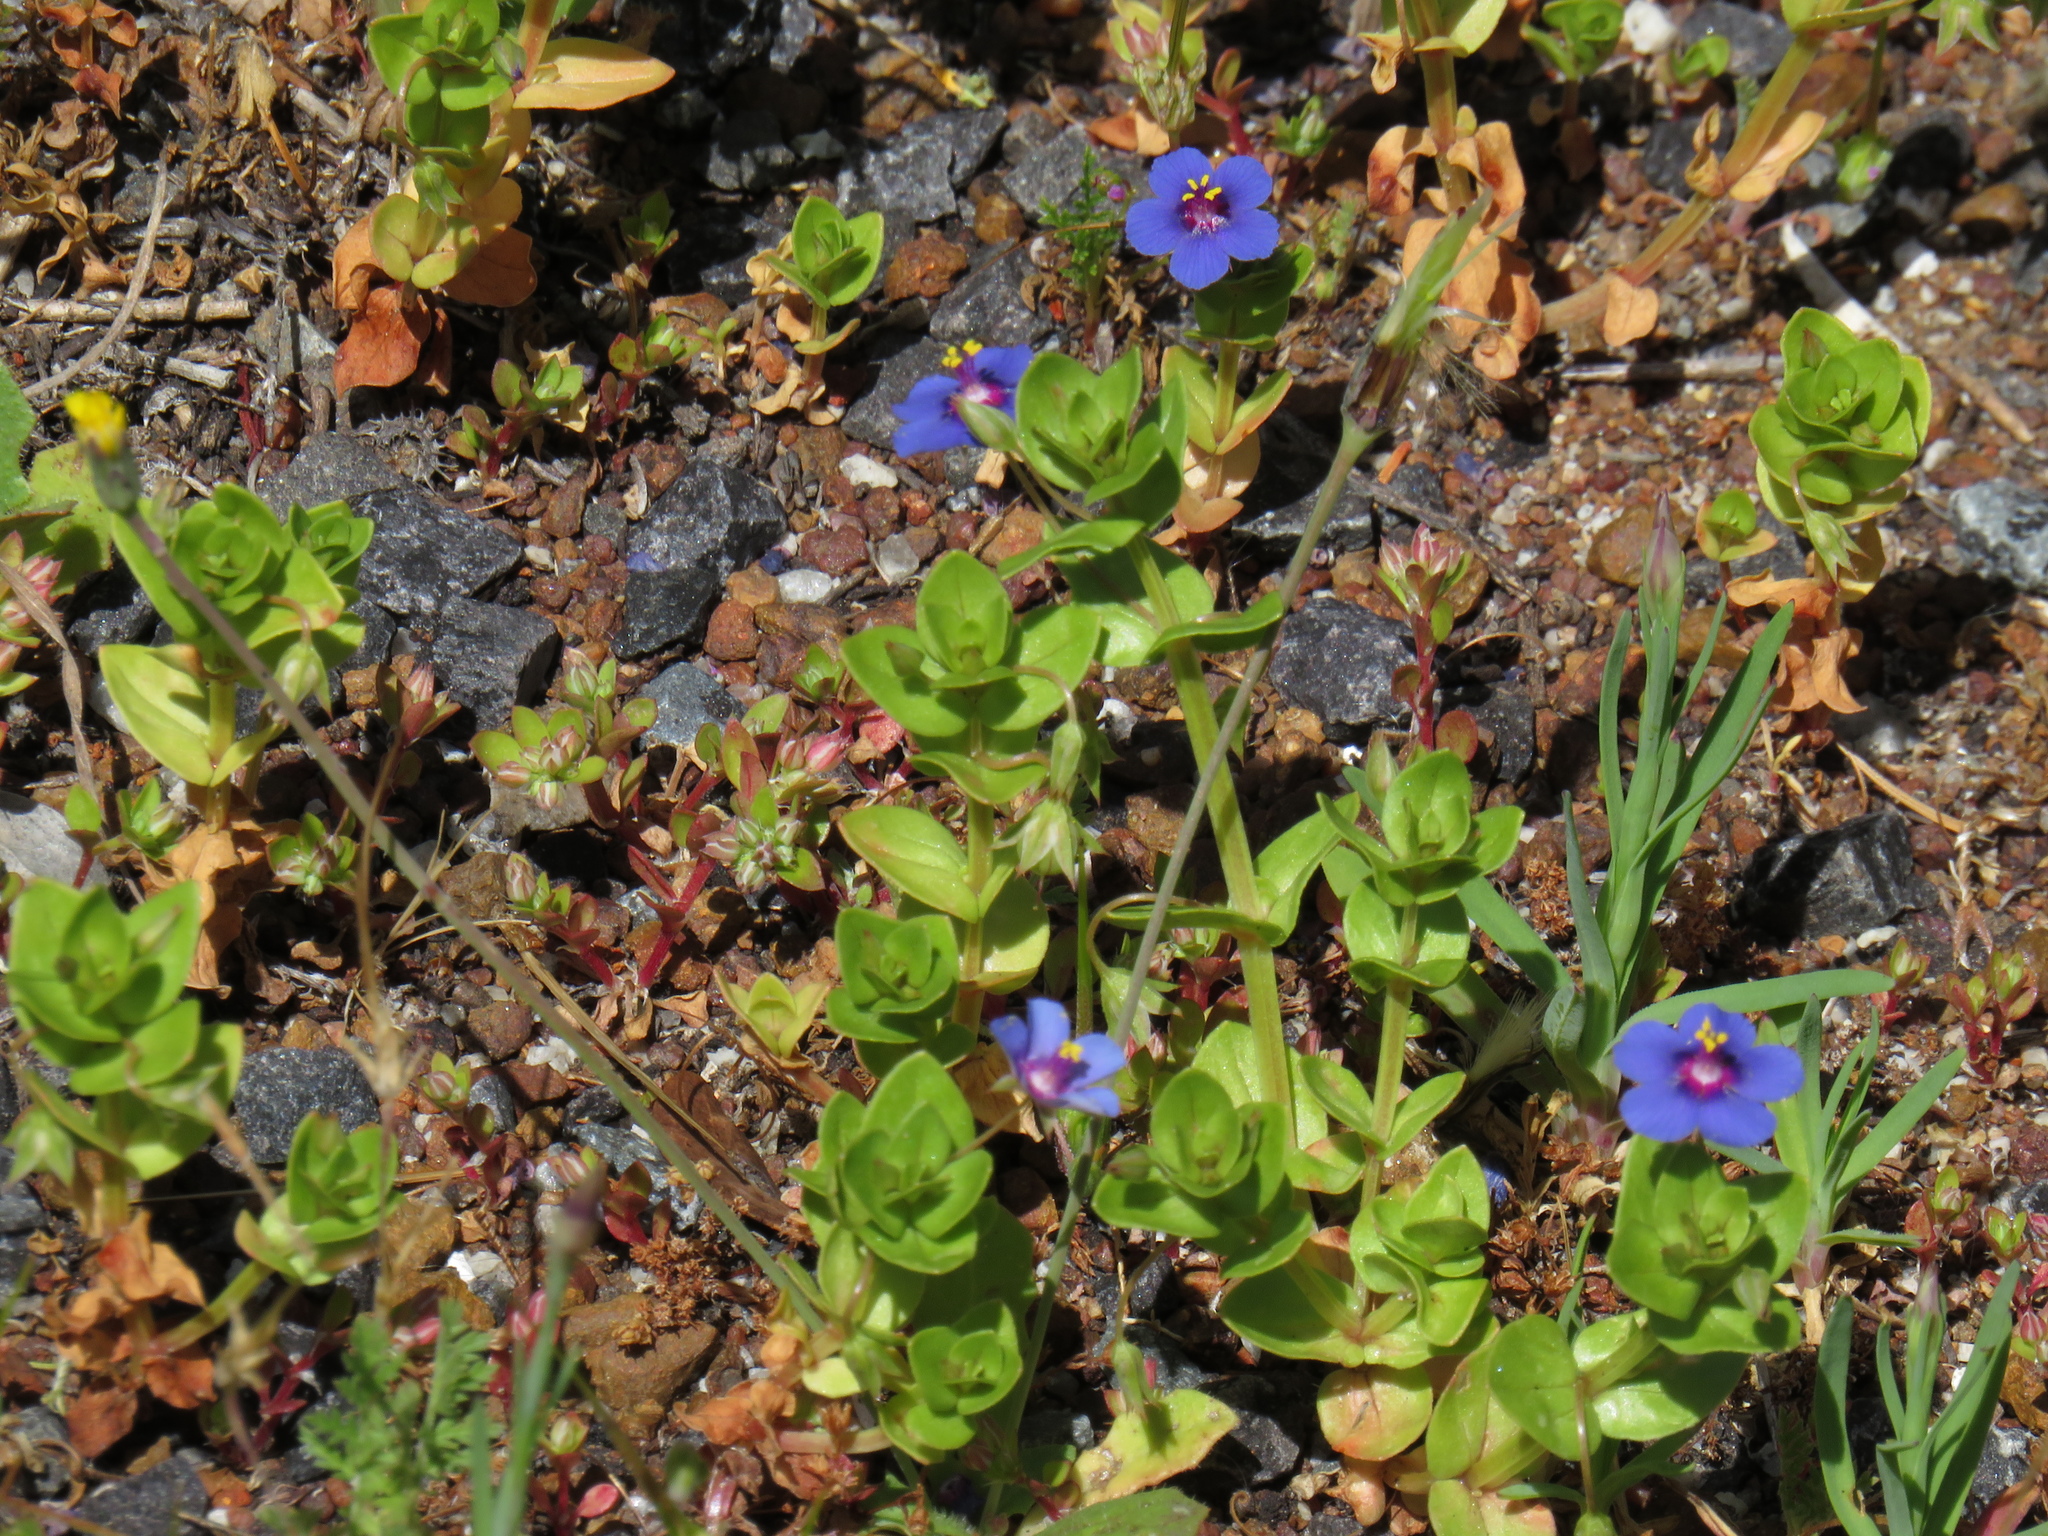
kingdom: Plantae
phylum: Tracheophyta
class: Magnoliopsida
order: Ericales
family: Primulaceae
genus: Lysimachia
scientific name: Lysimachia loeflingii
